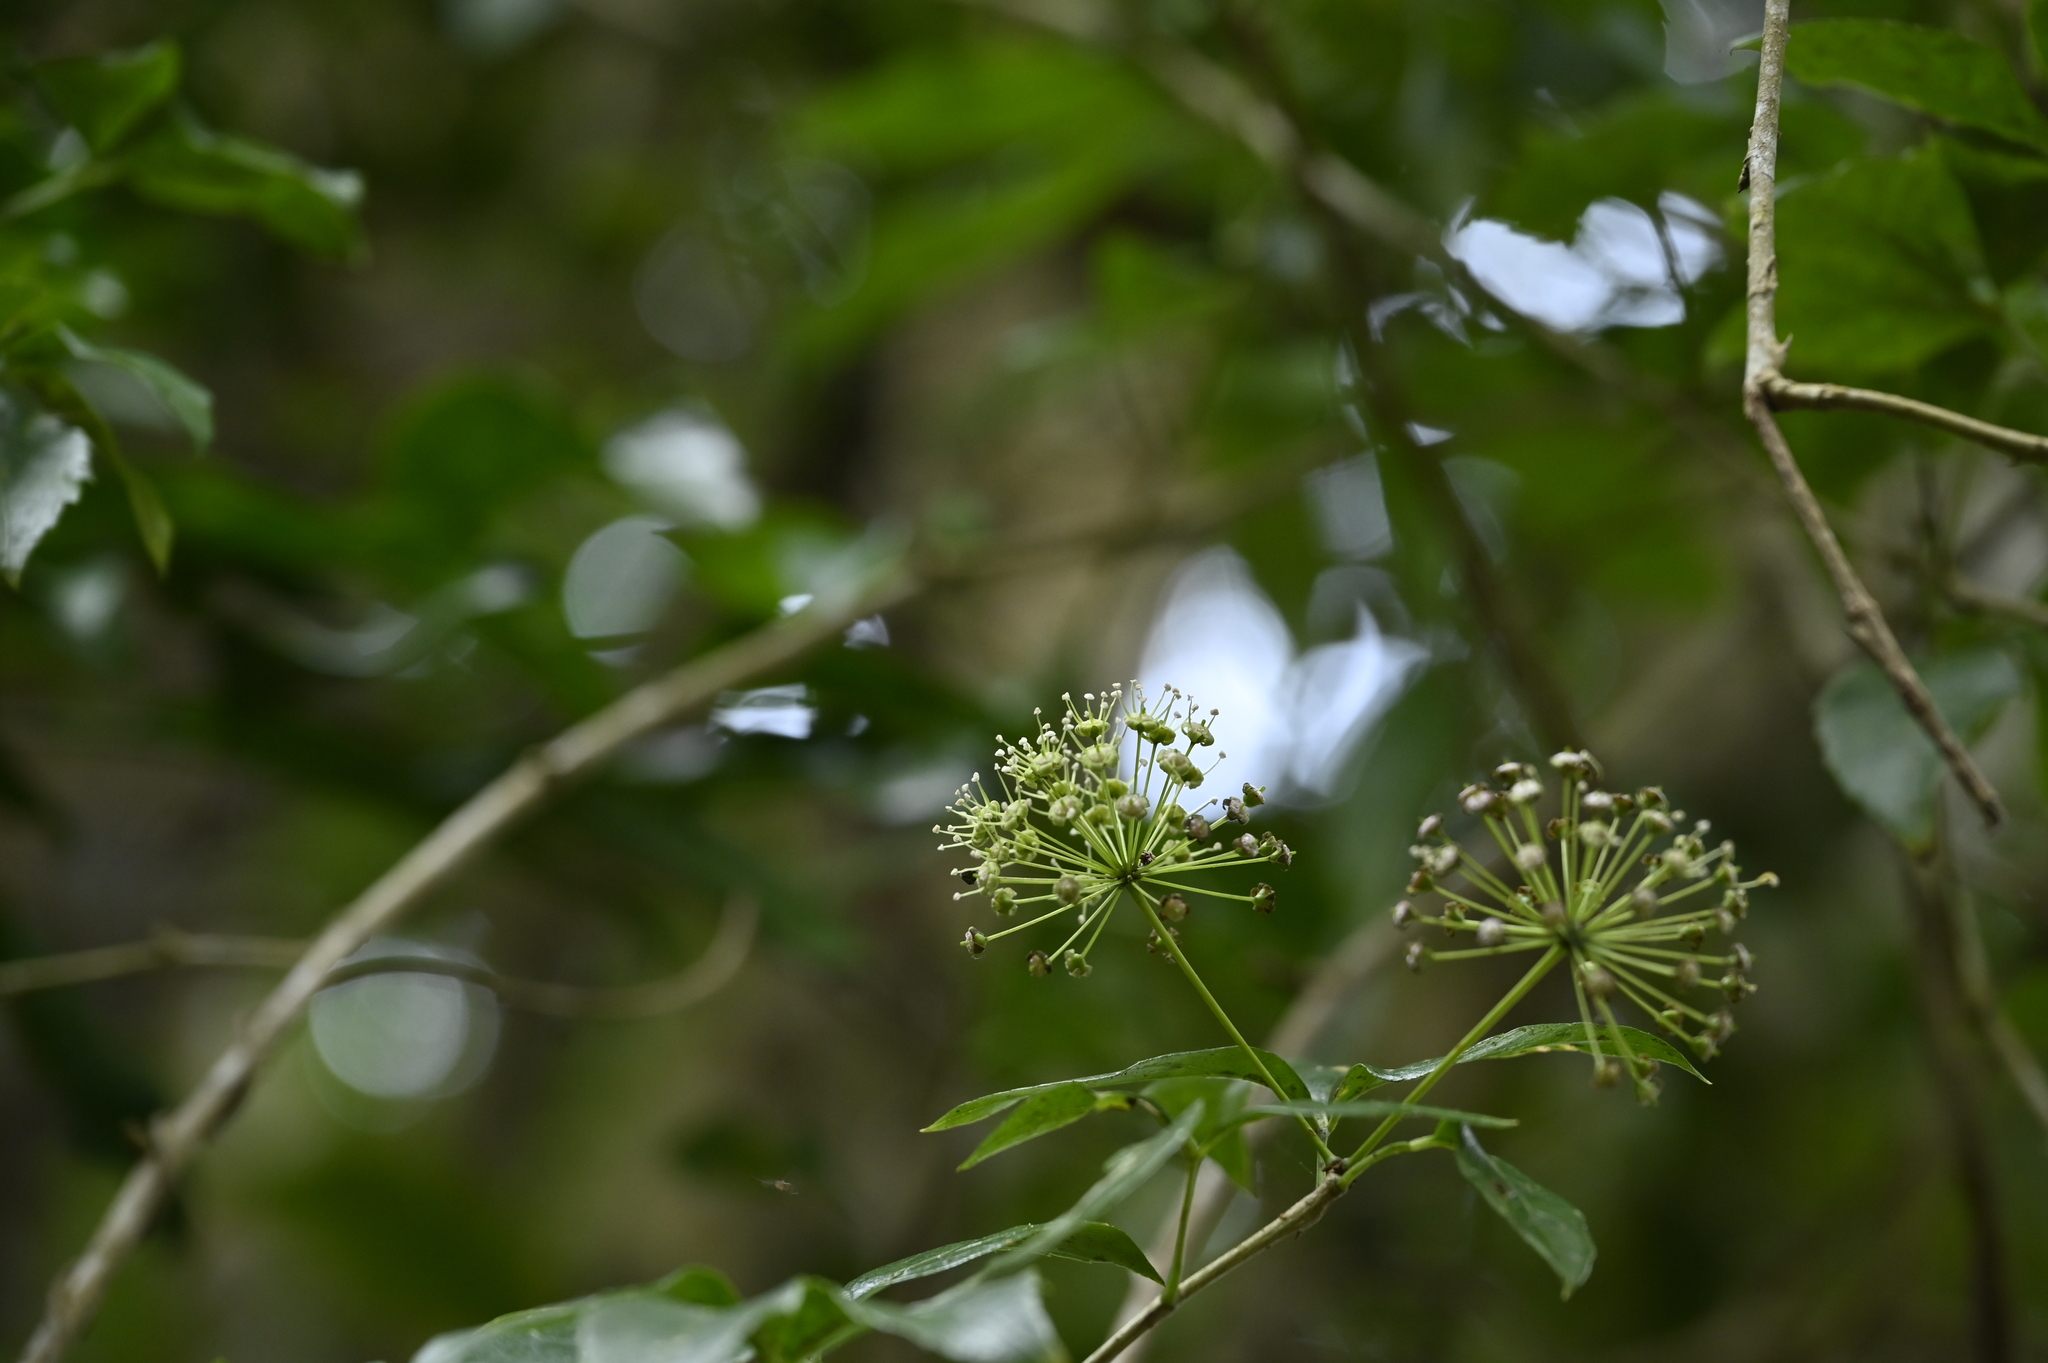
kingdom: Plantae
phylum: Tracheophyta
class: Magnoliopsida
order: Apiales
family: Araliaceae
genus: Eleutherococcus
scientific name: Eleutherococcus trifoliatus
